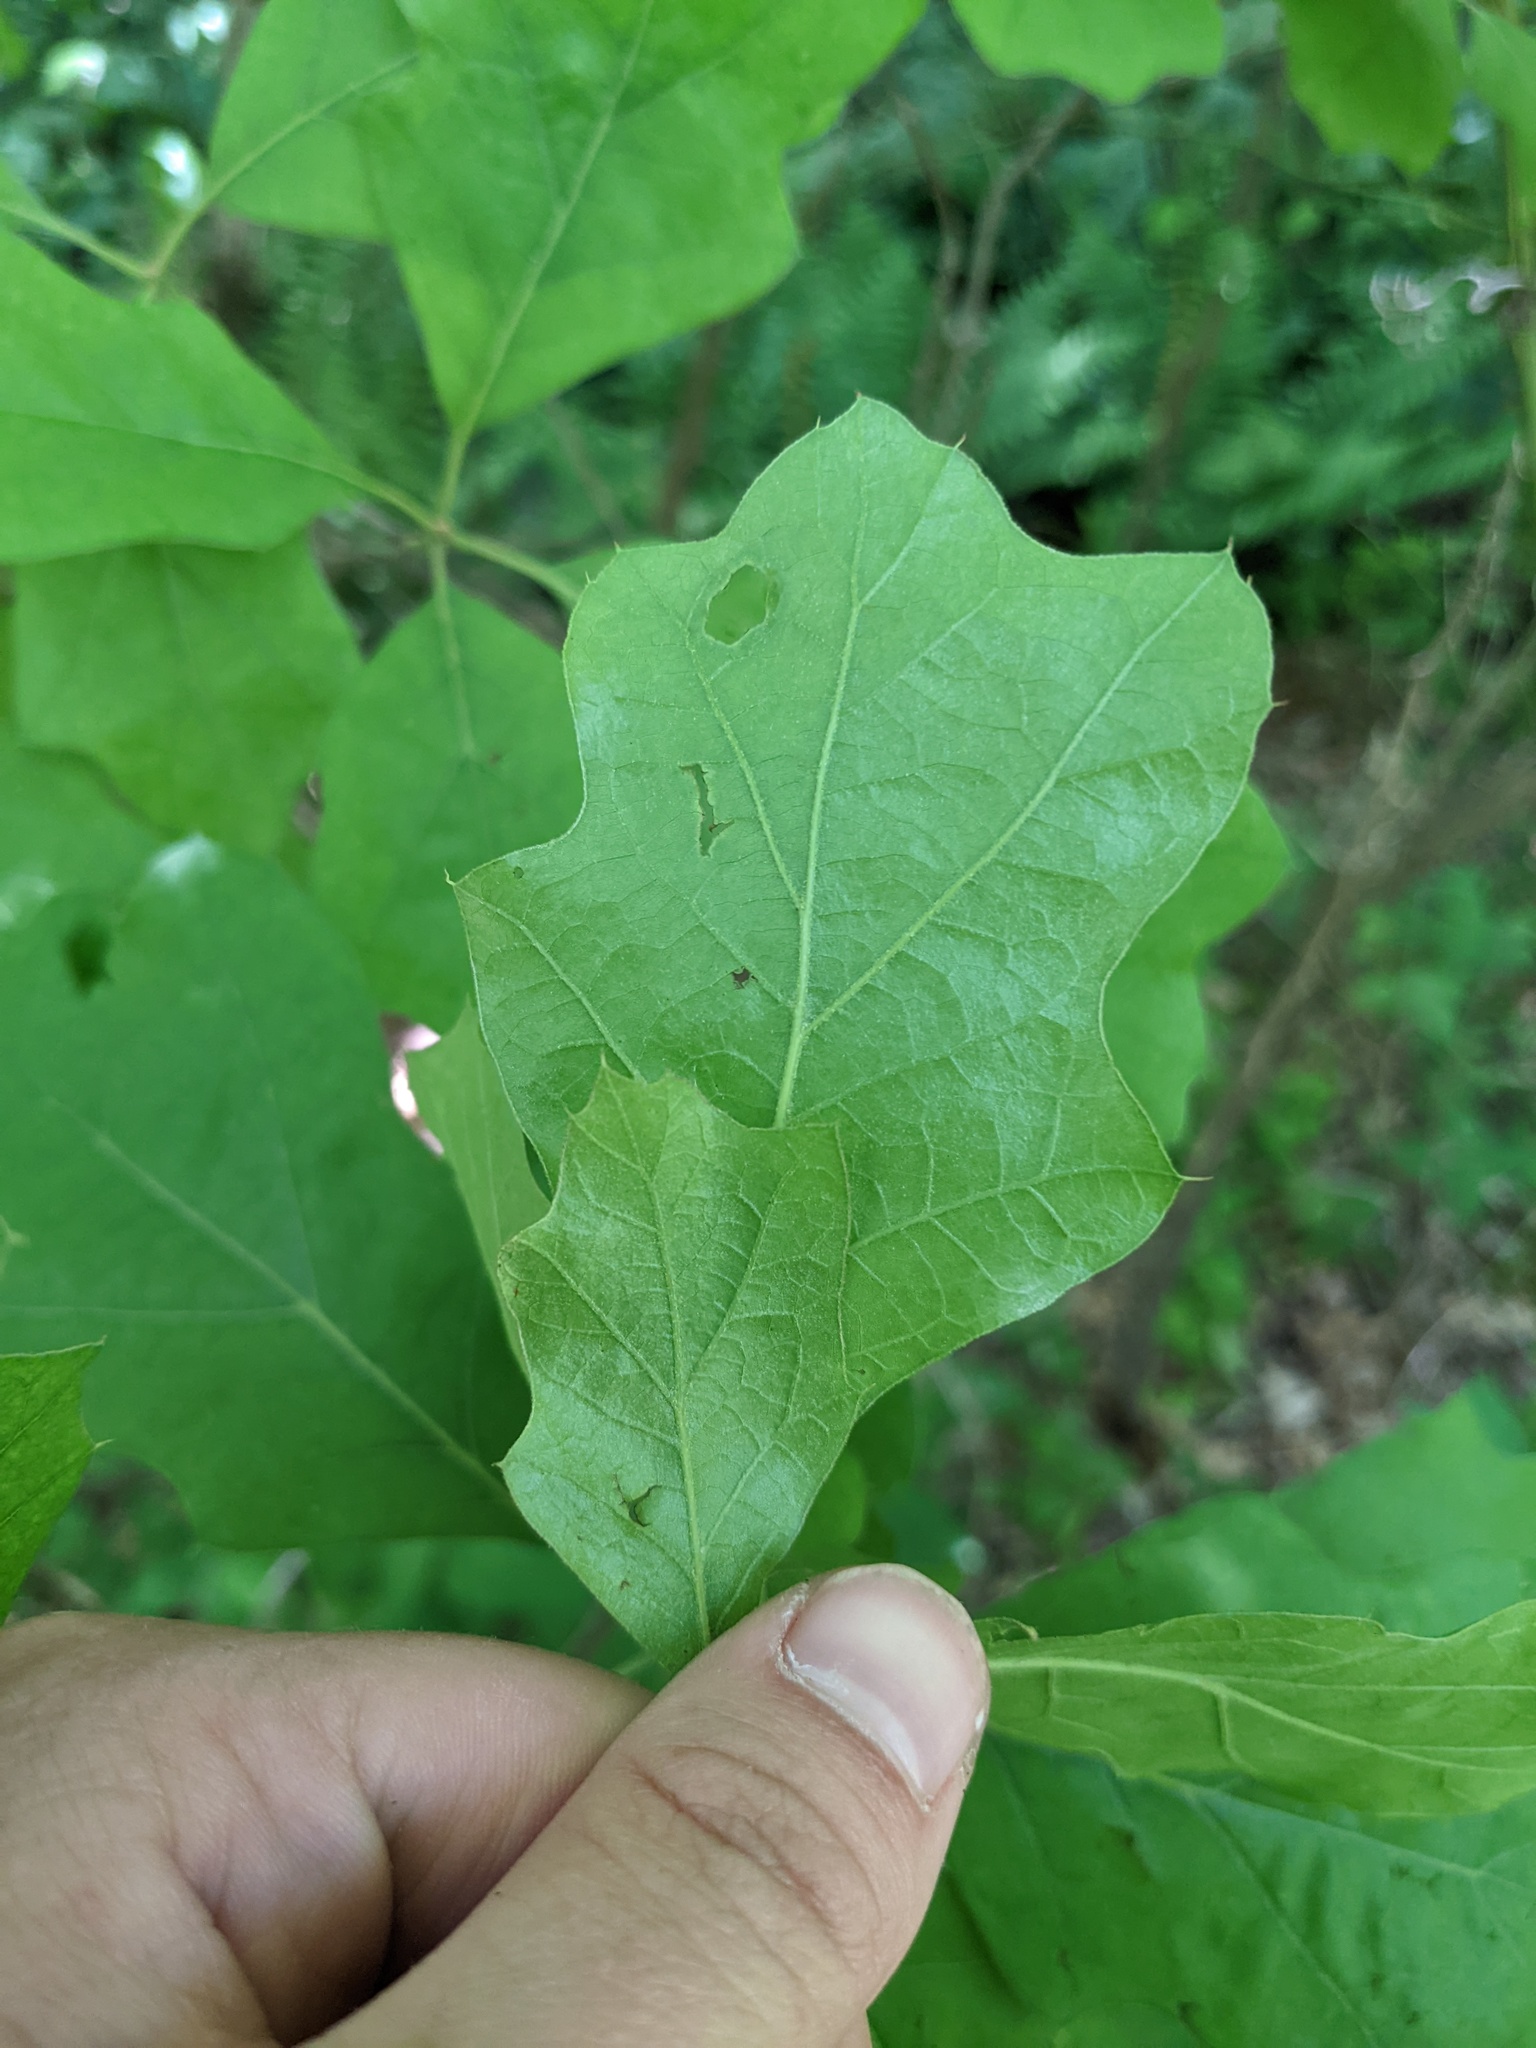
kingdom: Plantae
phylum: Tracheophyta
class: Magnoliopsida
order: Fagales
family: Fagaceae
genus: Quercus
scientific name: Quercus velutina
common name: Black oak
